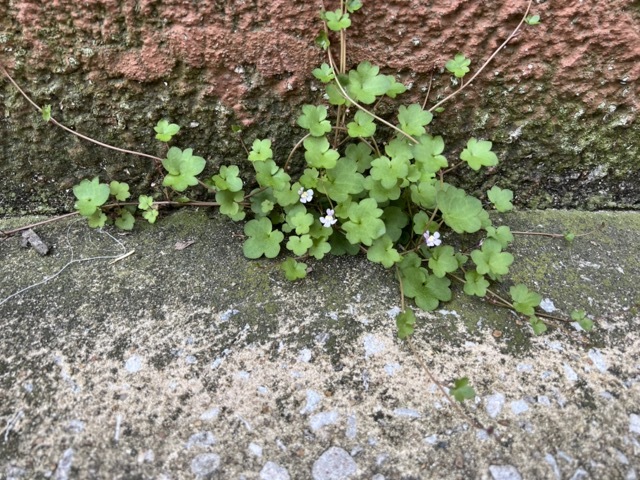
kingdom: Plantae
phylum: Tracheophyta
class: Magnoliopsida
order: Lamiales
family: Plantaginaceae
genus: Cymbalaria
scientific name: Cymbalaria muralis
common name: Ivy-leaved toadflax
